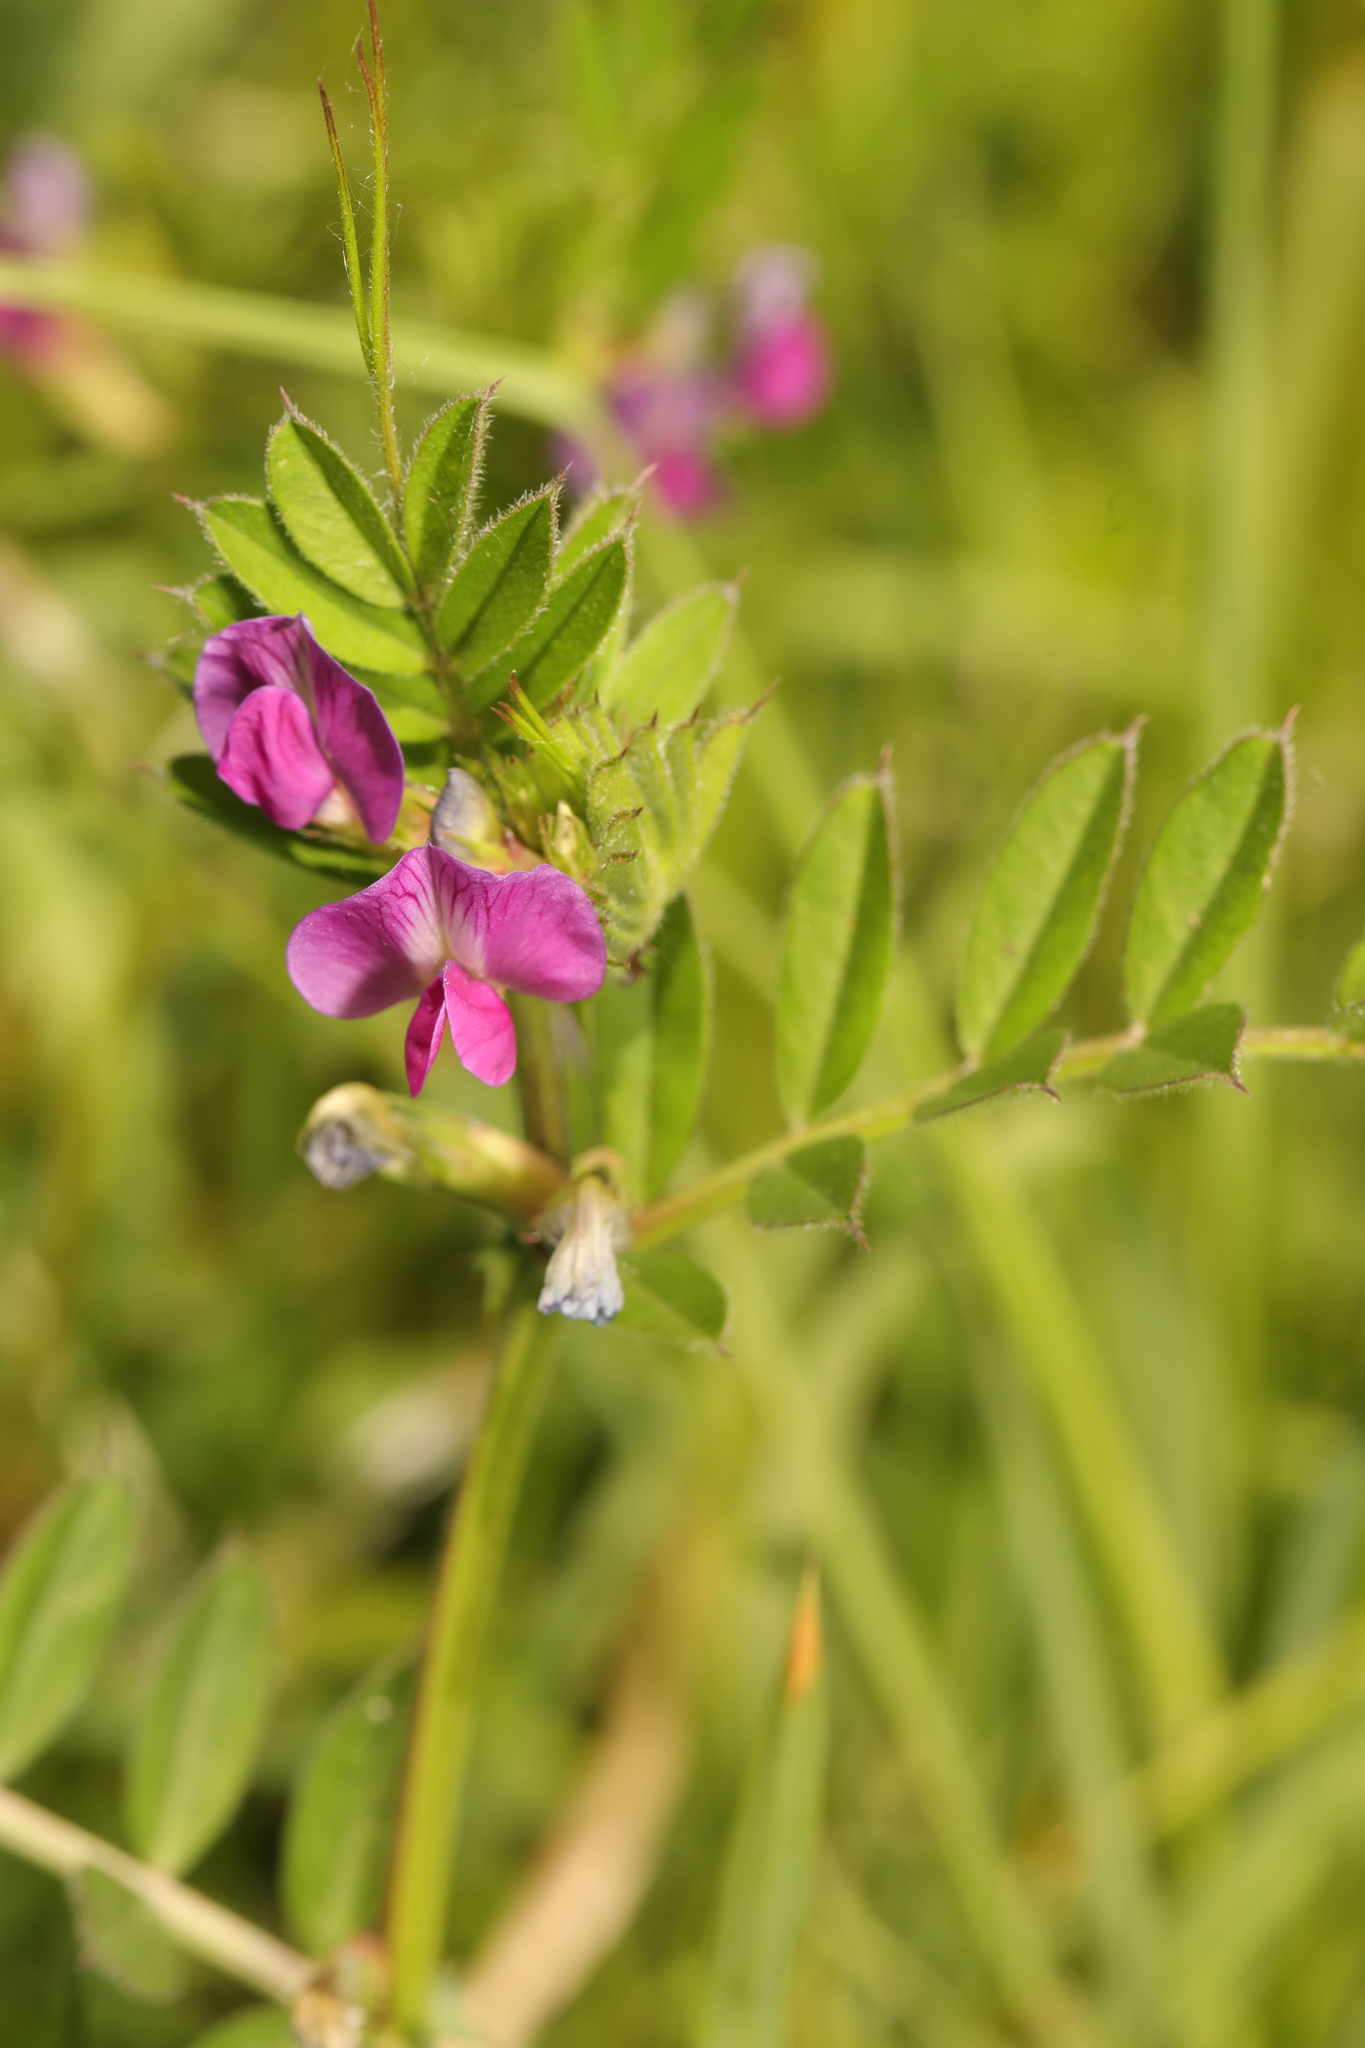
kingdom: Plantae
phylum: Tracheophyta
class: Magnoliopsida
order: Fabales
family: Fabaceae
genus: Vicia
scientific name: Vicia sativa
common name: Garden vetch
